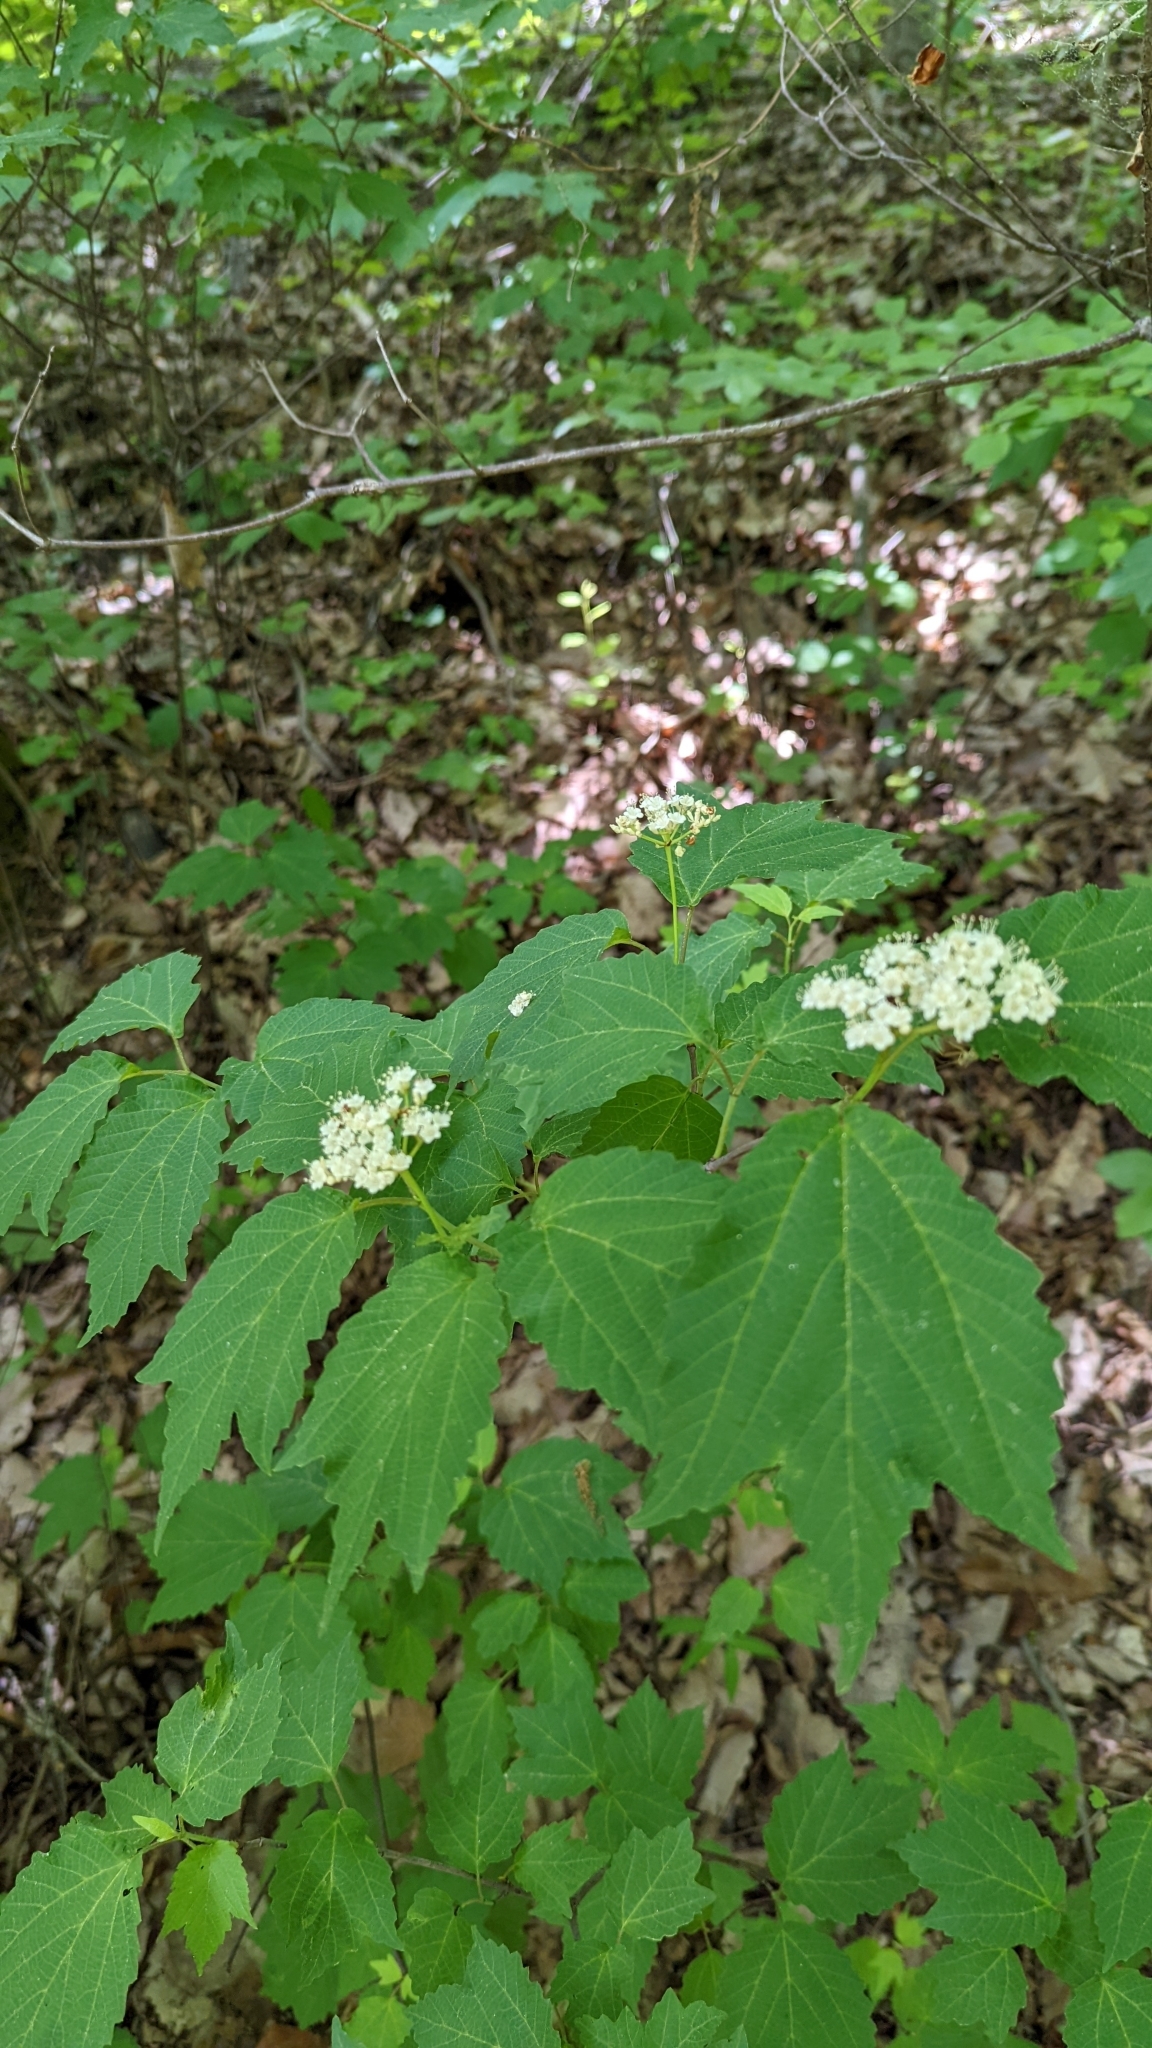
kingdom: Plantae
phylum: Tracheophyta
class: Magnoliopsida
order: Dipsacales
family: Viburnaceae
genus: Viburnum
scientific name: Viburnum acerifolium
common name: Dockmackie
